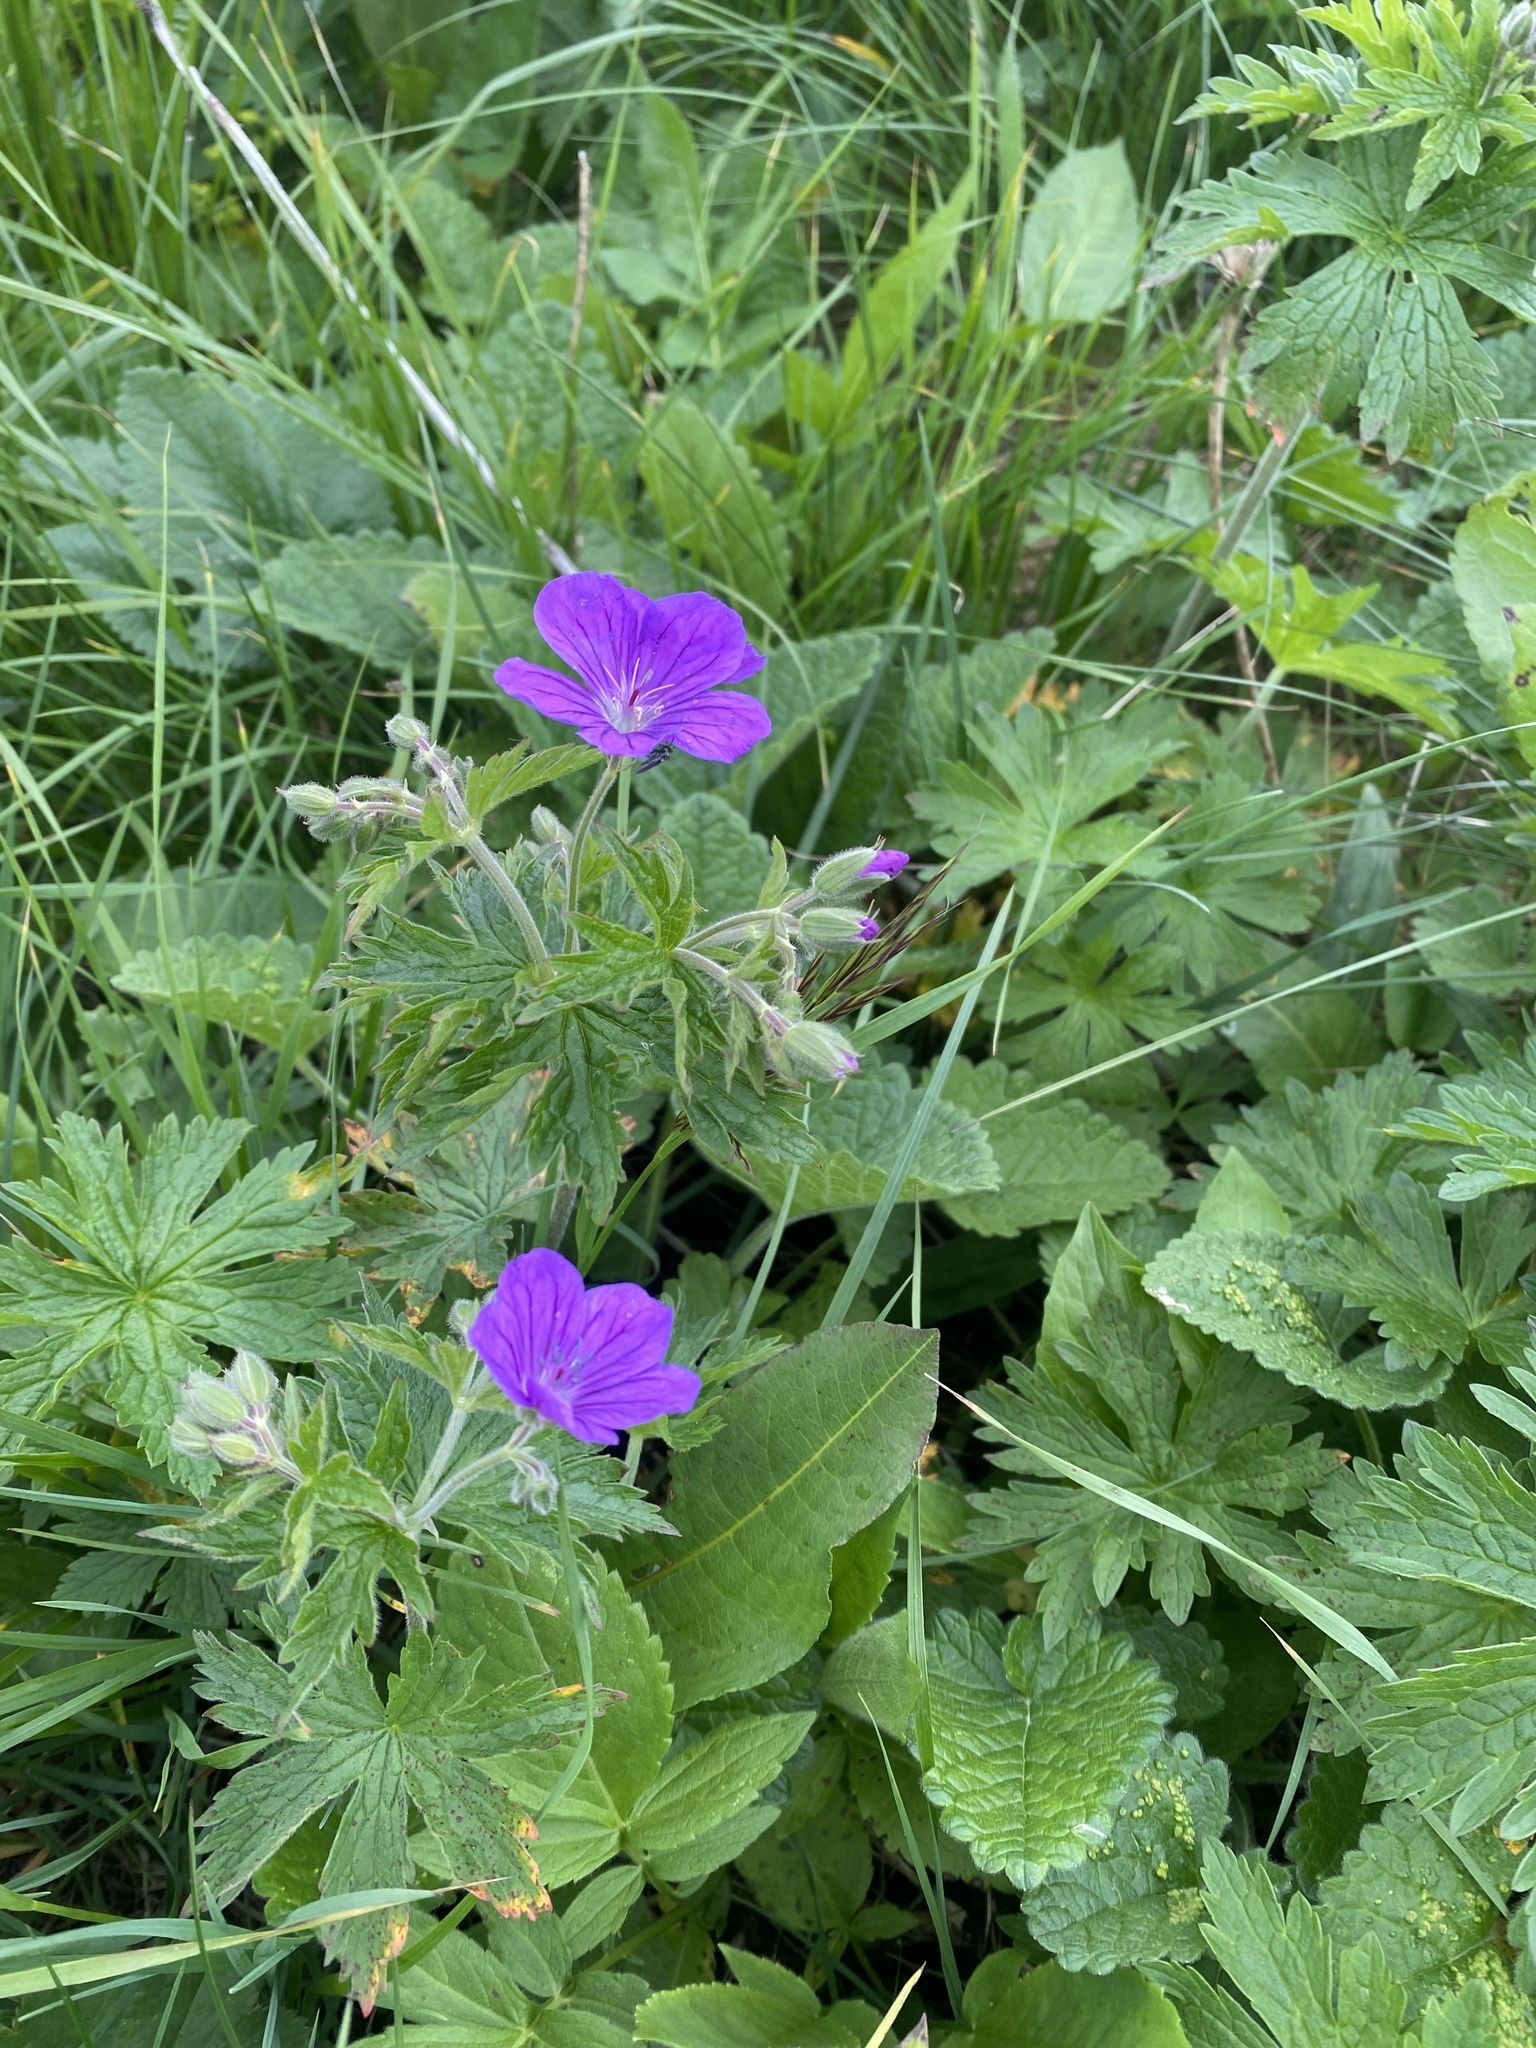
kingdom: Plantae
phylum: Tracheophyta
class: Magnoliopsida
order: Geraniales
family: Geraniaceae
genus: Geranium
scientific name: Geranium sylvaticum
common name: Wood crane's-bill
